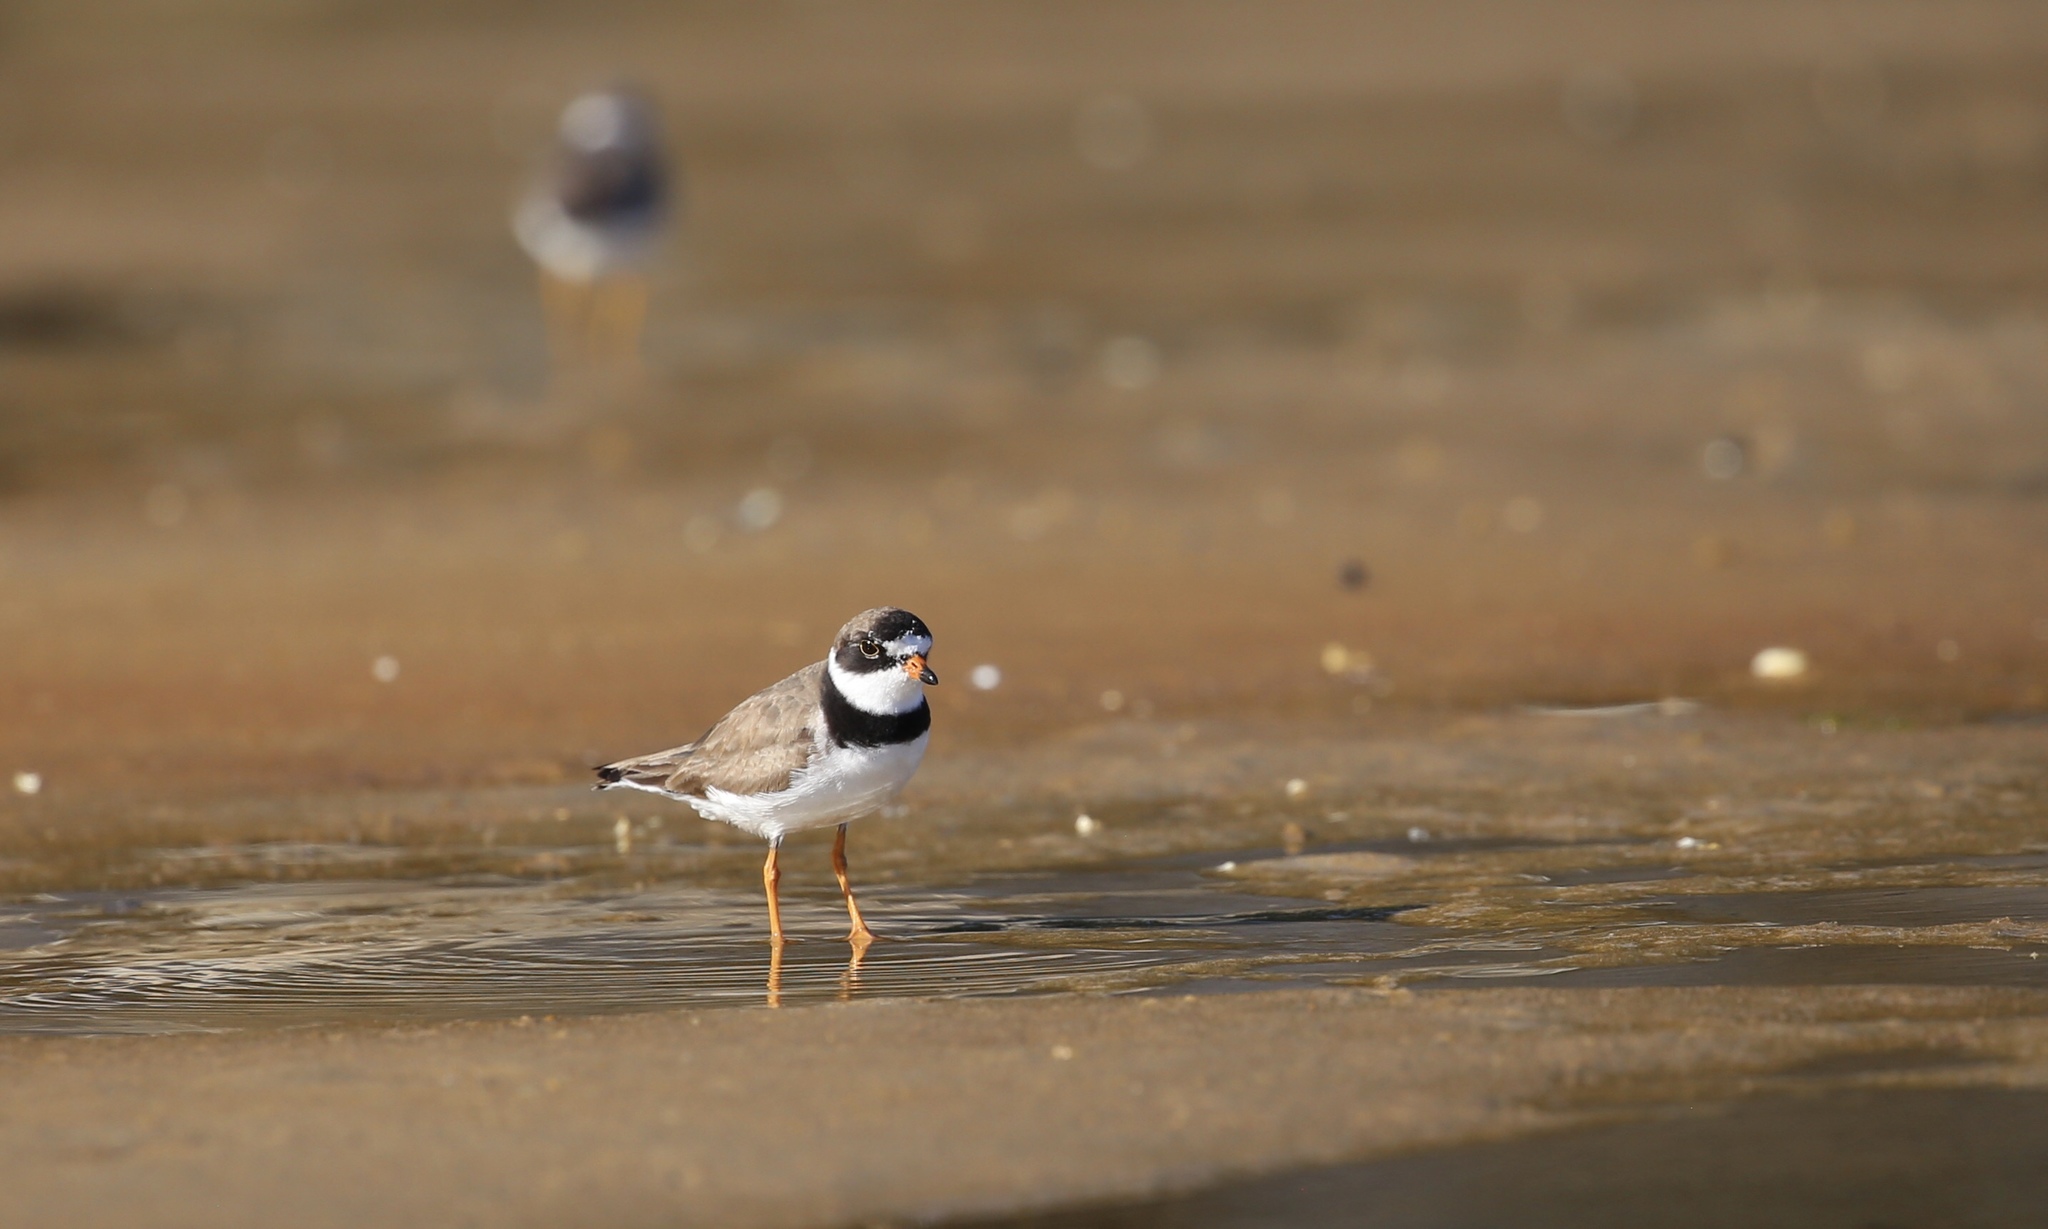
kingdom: Animalia
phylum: Chordata
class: Aves
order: Charadriiformes
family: Charadriidae
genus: Charadrius
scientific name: Charadrius semipalmatus
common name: Semipalmated plover
